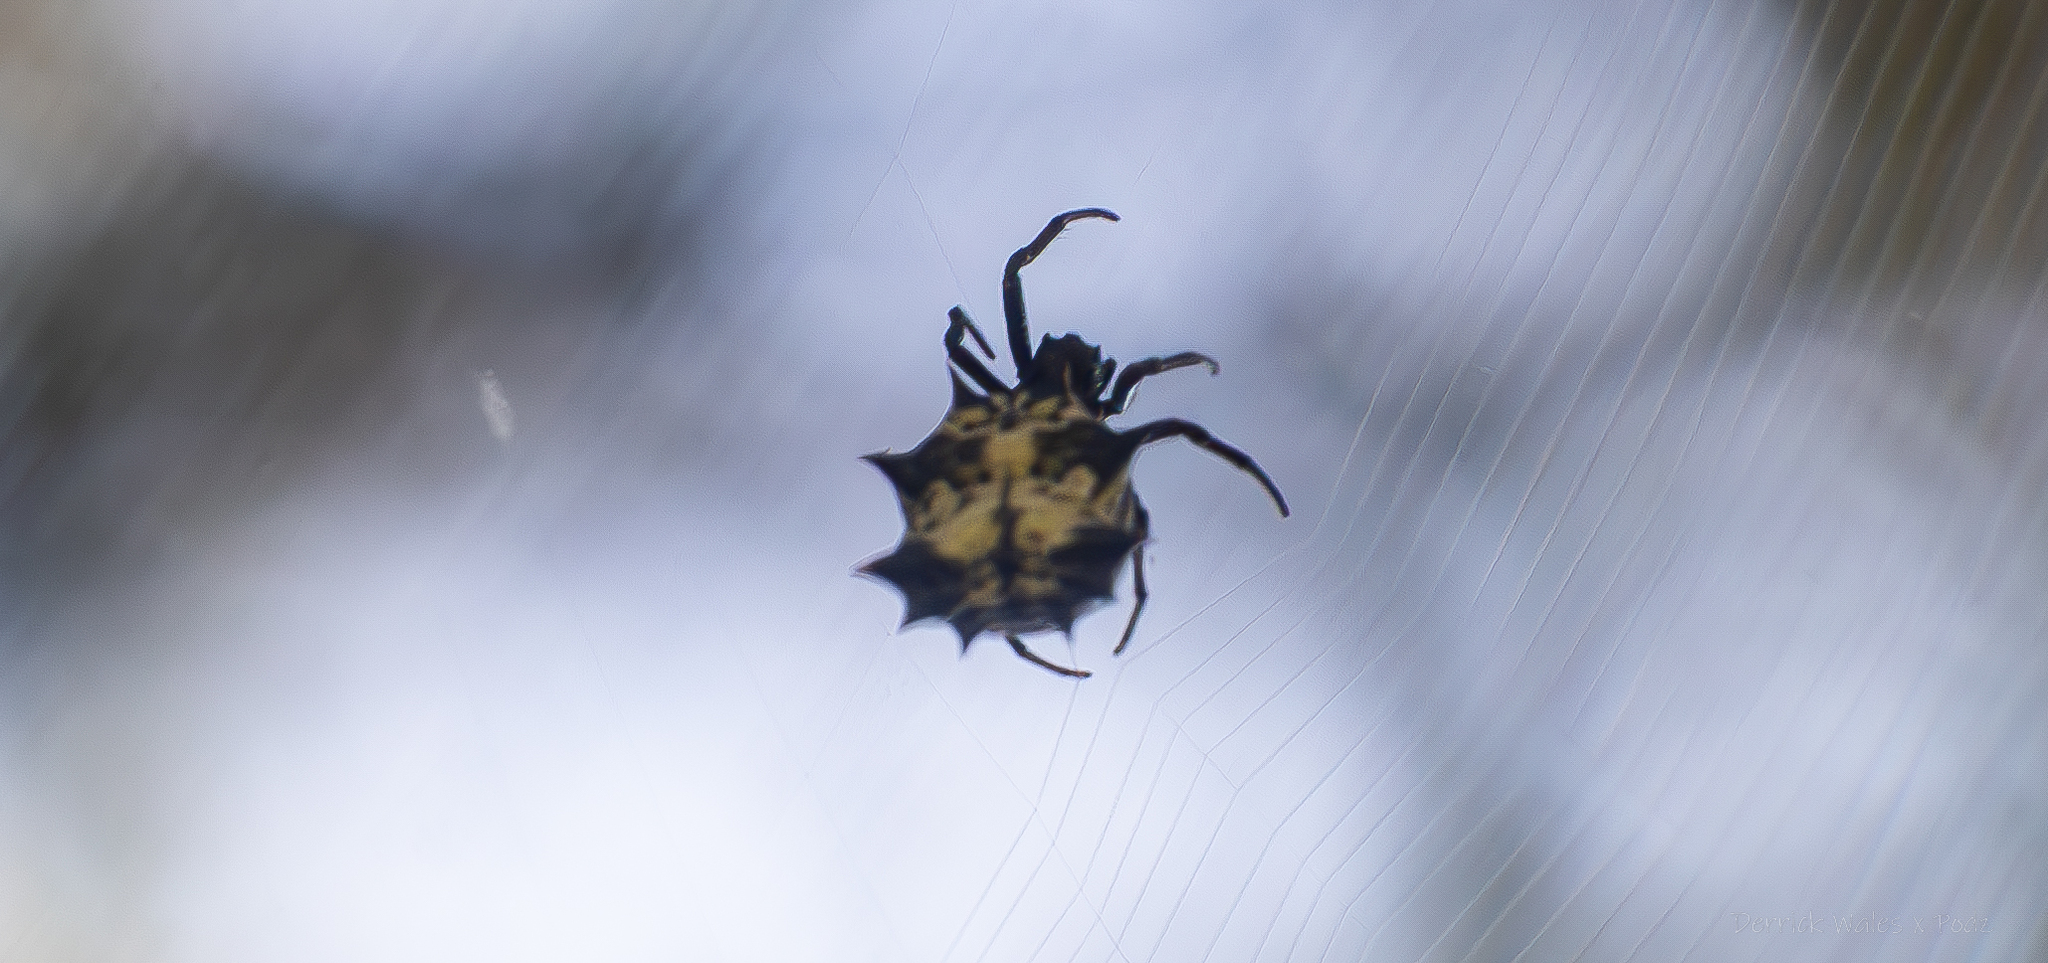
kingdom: Animalia
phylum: Arthropoda
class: Arachnida
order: Araneae
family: Araneidae
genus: Micrathena
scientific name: Micrathena gracilis
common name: Orb weavers
